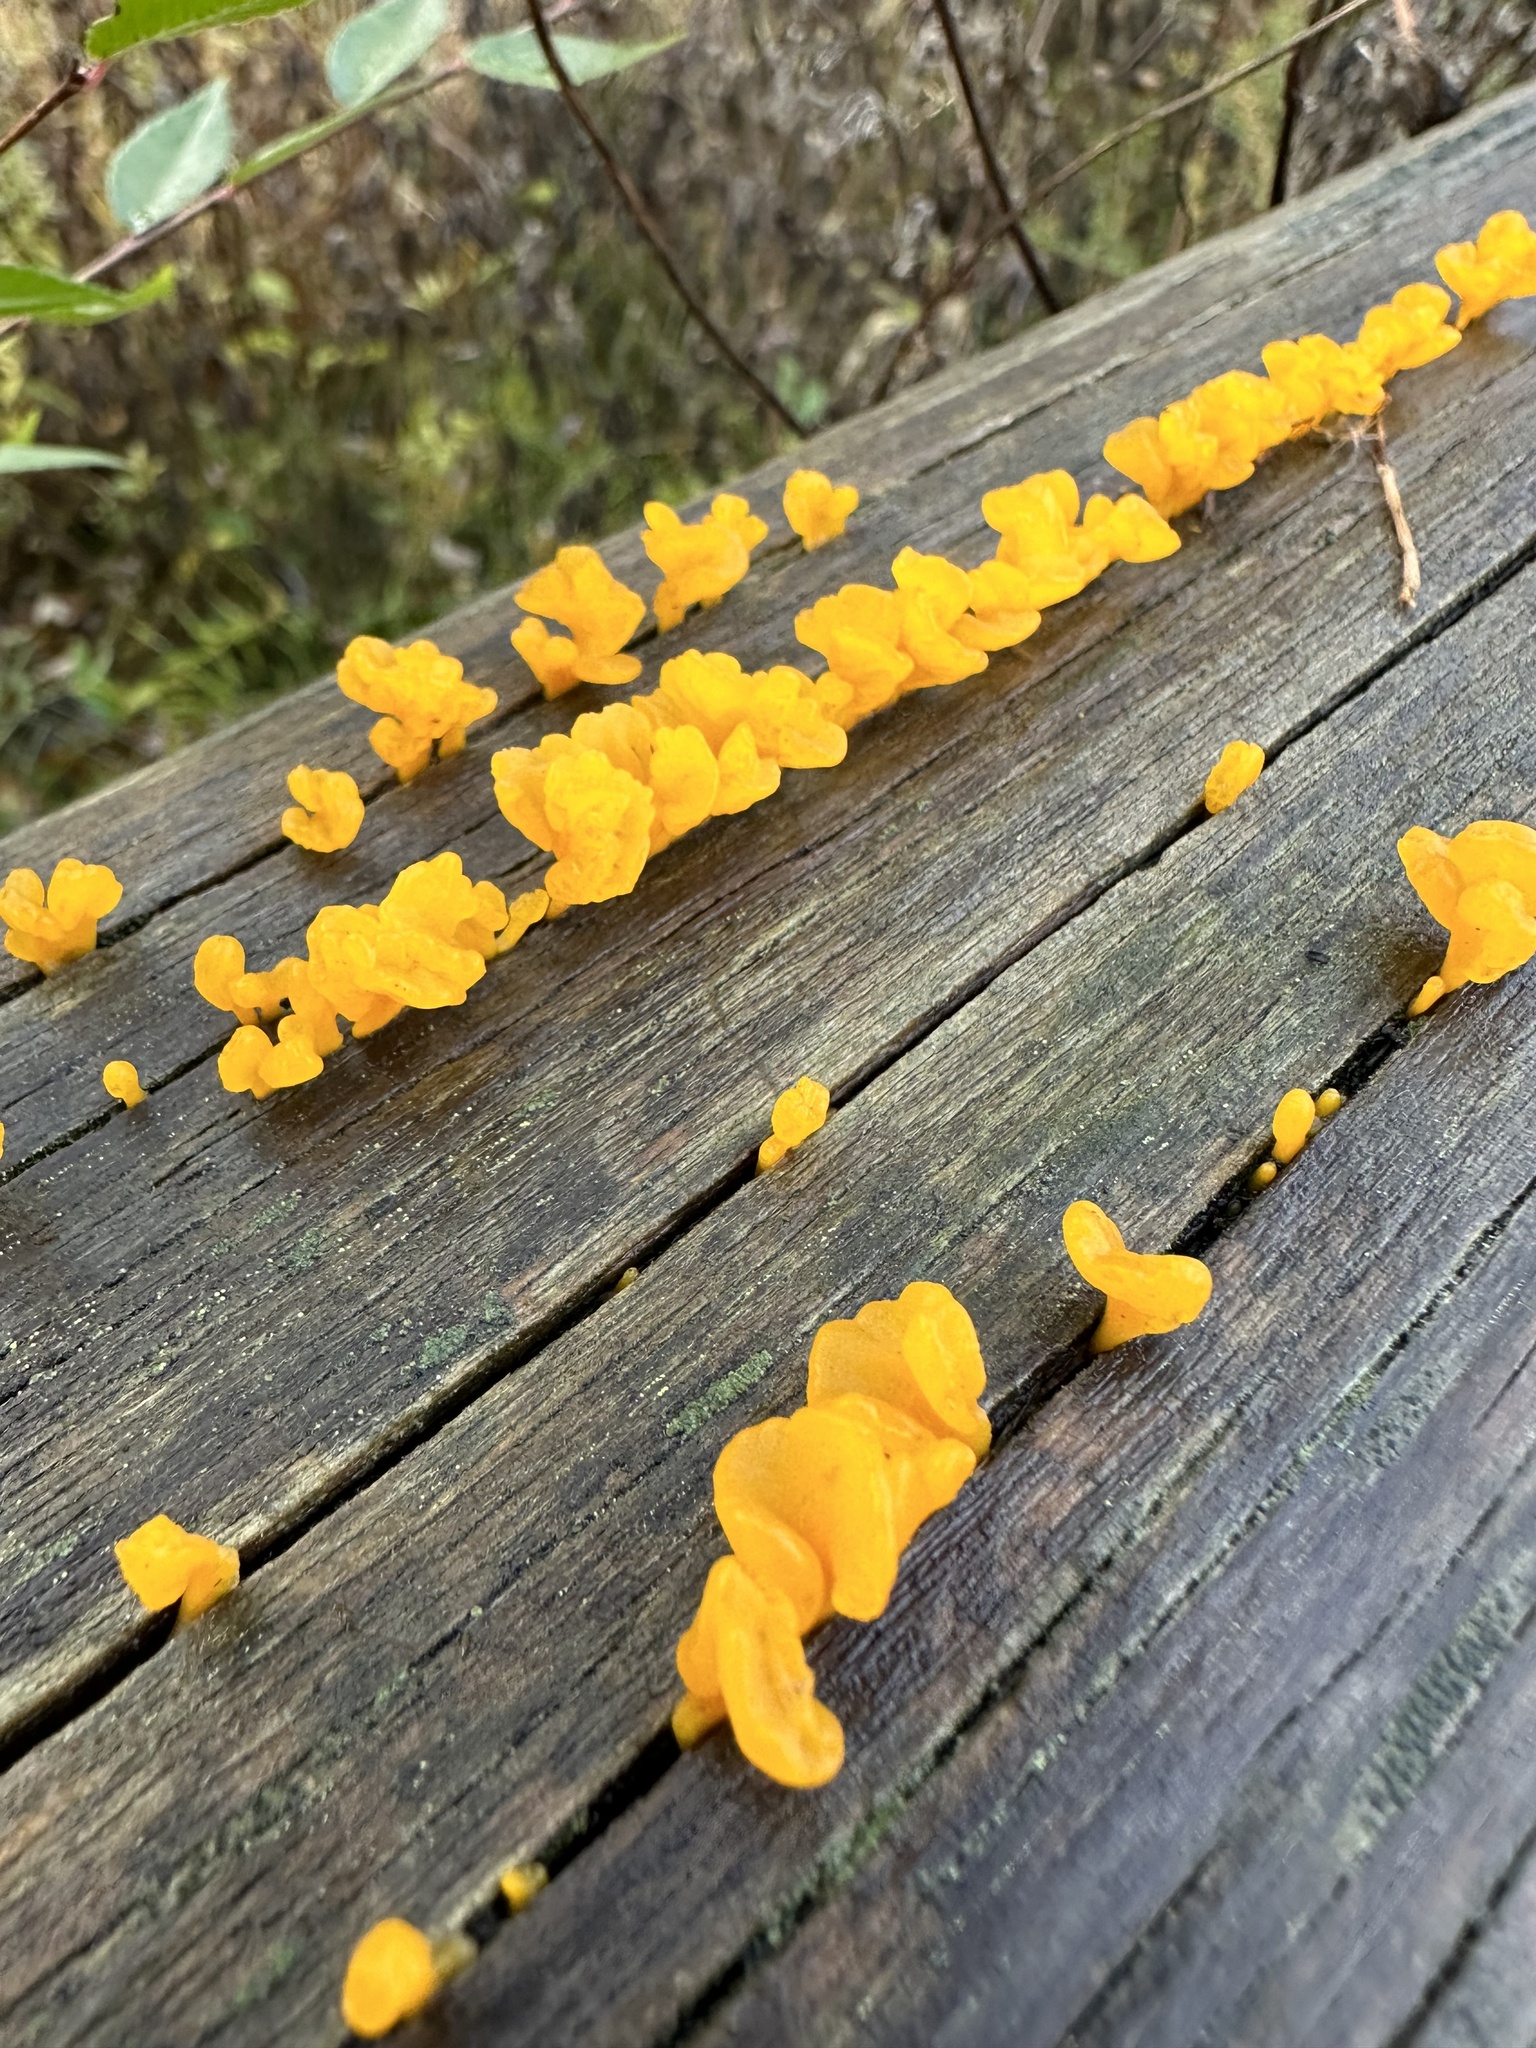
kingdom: Fungi
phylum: Basidiomycota
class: Dacrymycetes
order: Dacrymycetales
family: Dacrymycetaceae
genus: Dacrymyces
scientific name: Dacrymyces spathularius
